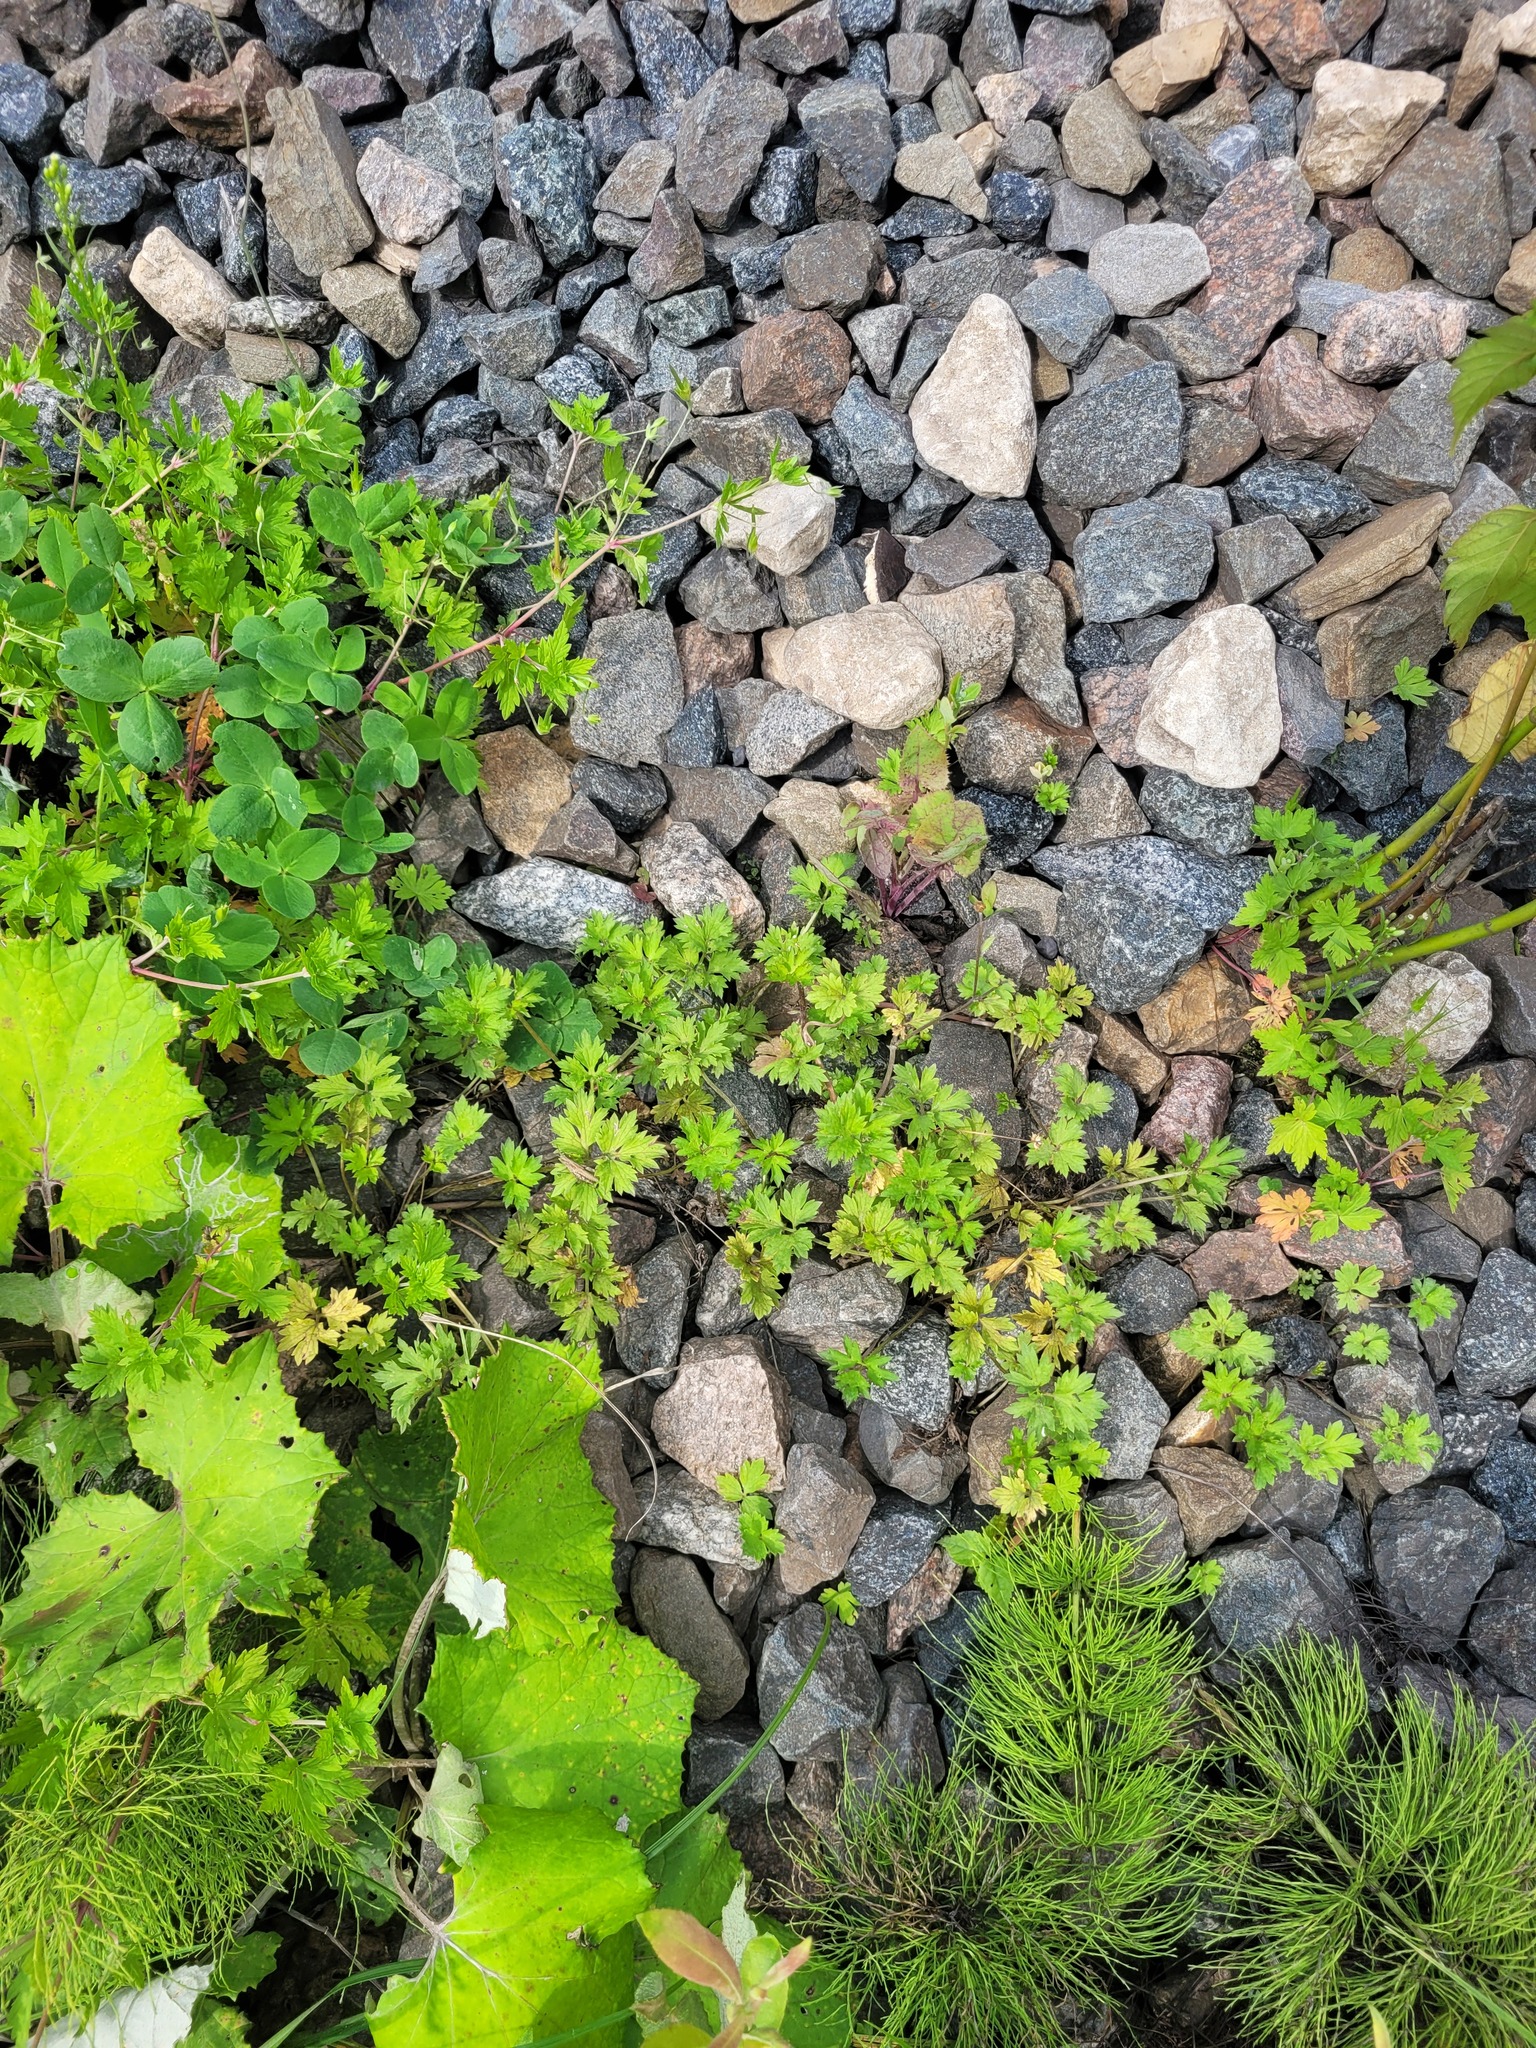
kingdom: Plantae
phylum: Tracheophyta
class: Magnoliopsida
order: Ranunculales
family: Ranunculaceae
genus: Ranunculus
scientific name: Ranunculus repens
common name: Creeping buttercup
